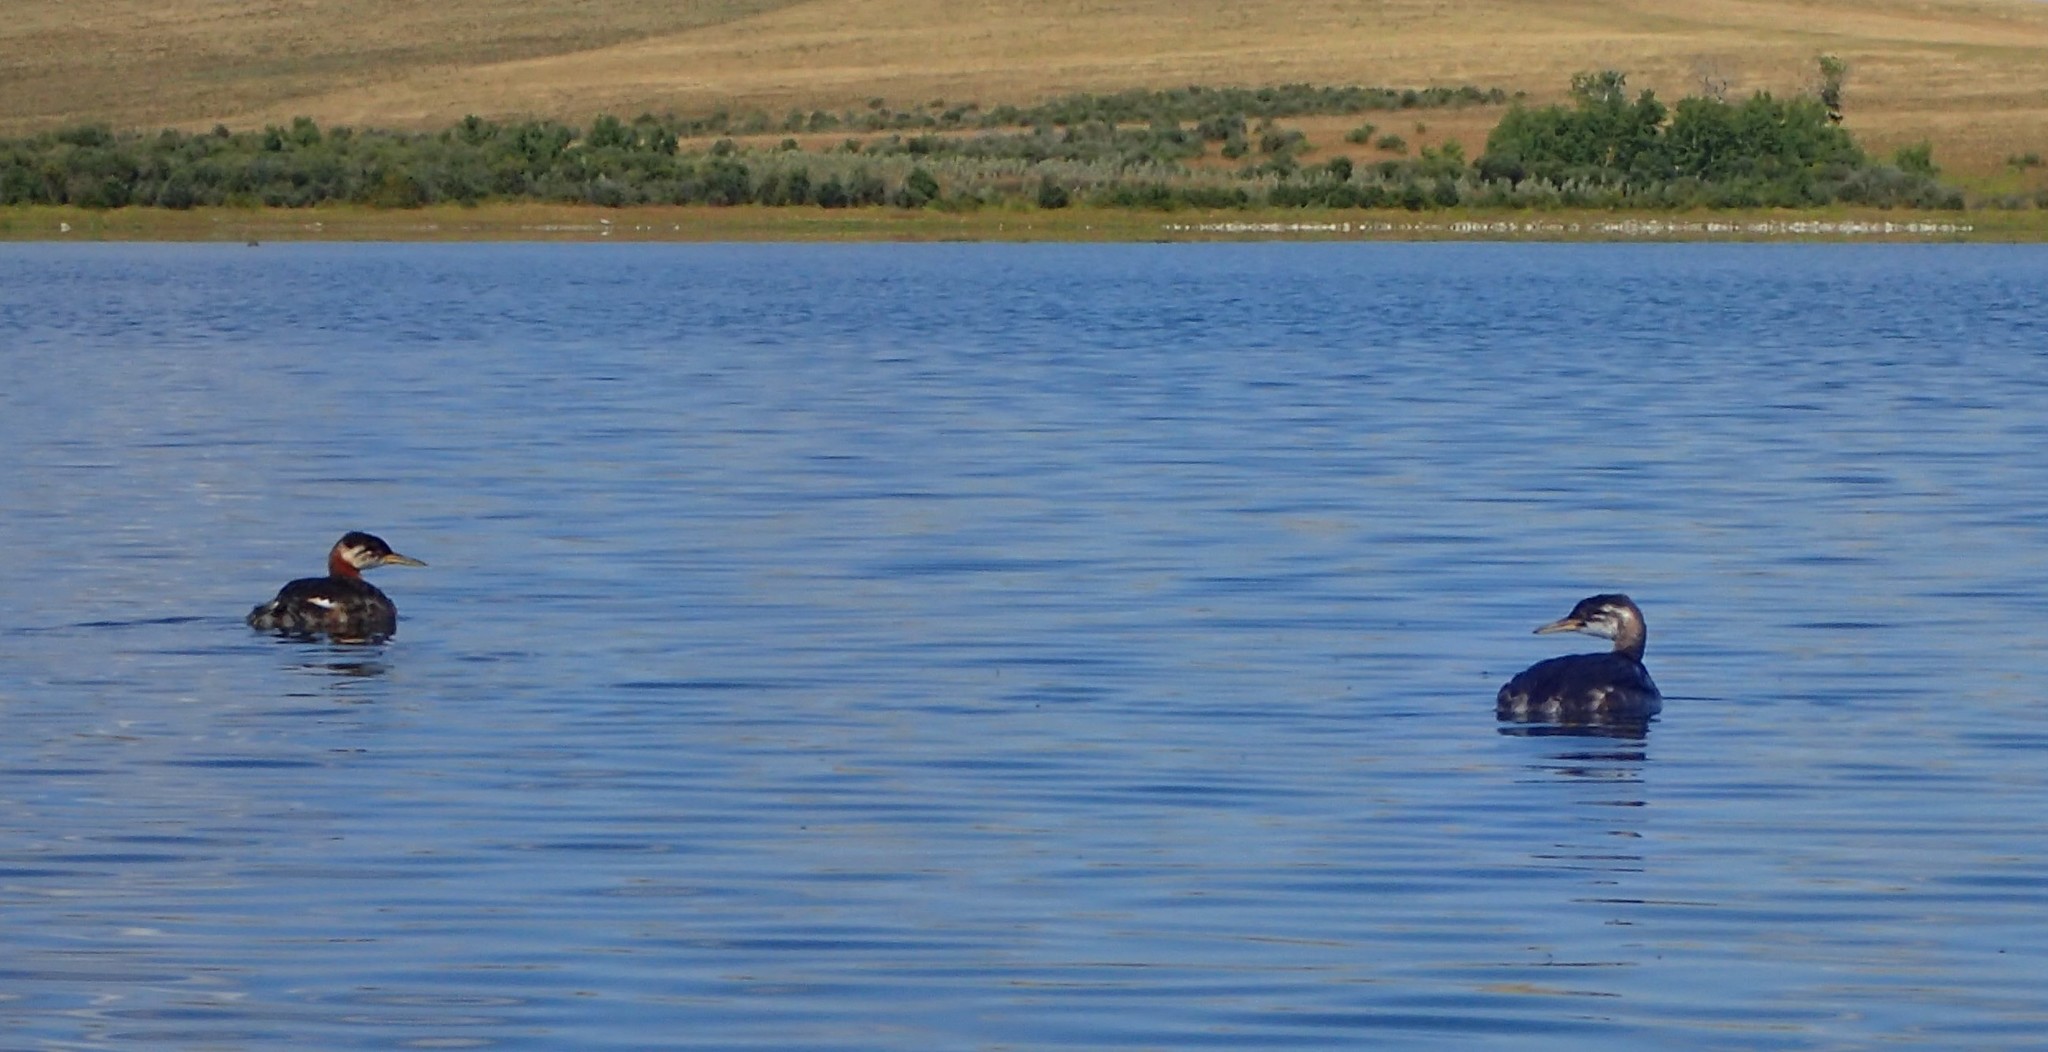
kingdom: Animalia
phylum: Chordata
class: Aves
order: Podicipediformes
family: Podicipedidae
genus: Podiceps
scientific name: Podiceps grisegena
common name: Red-necked grebe
